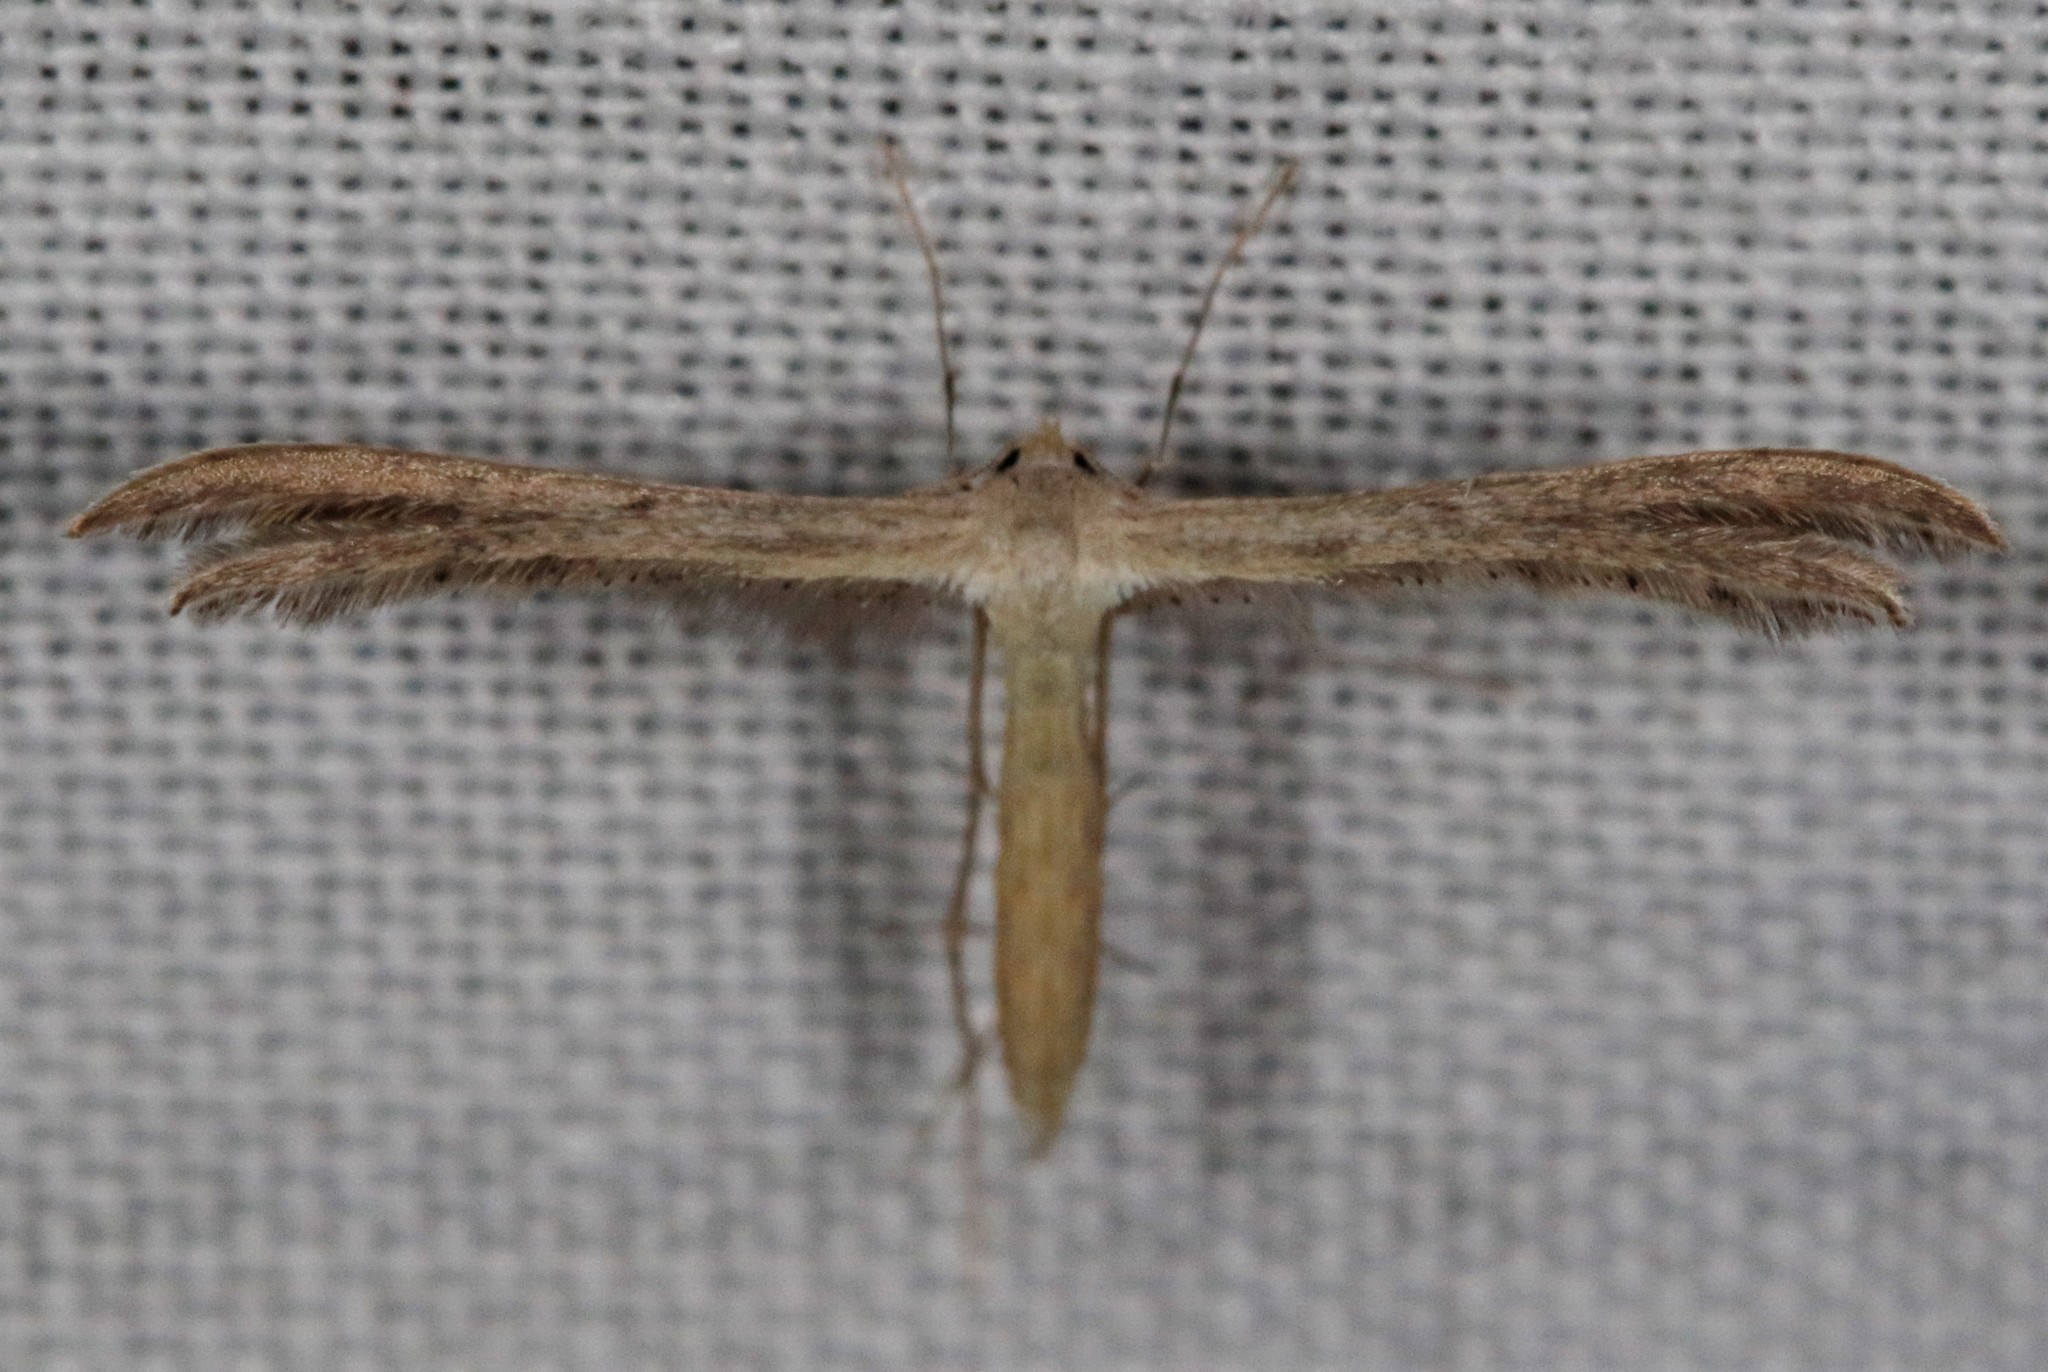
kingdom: Animalia
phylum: Arthropoda
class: Insecta
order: Lepidoptera
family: Pterophoridae
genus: Exelastis
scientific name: Exelastis montischristi
